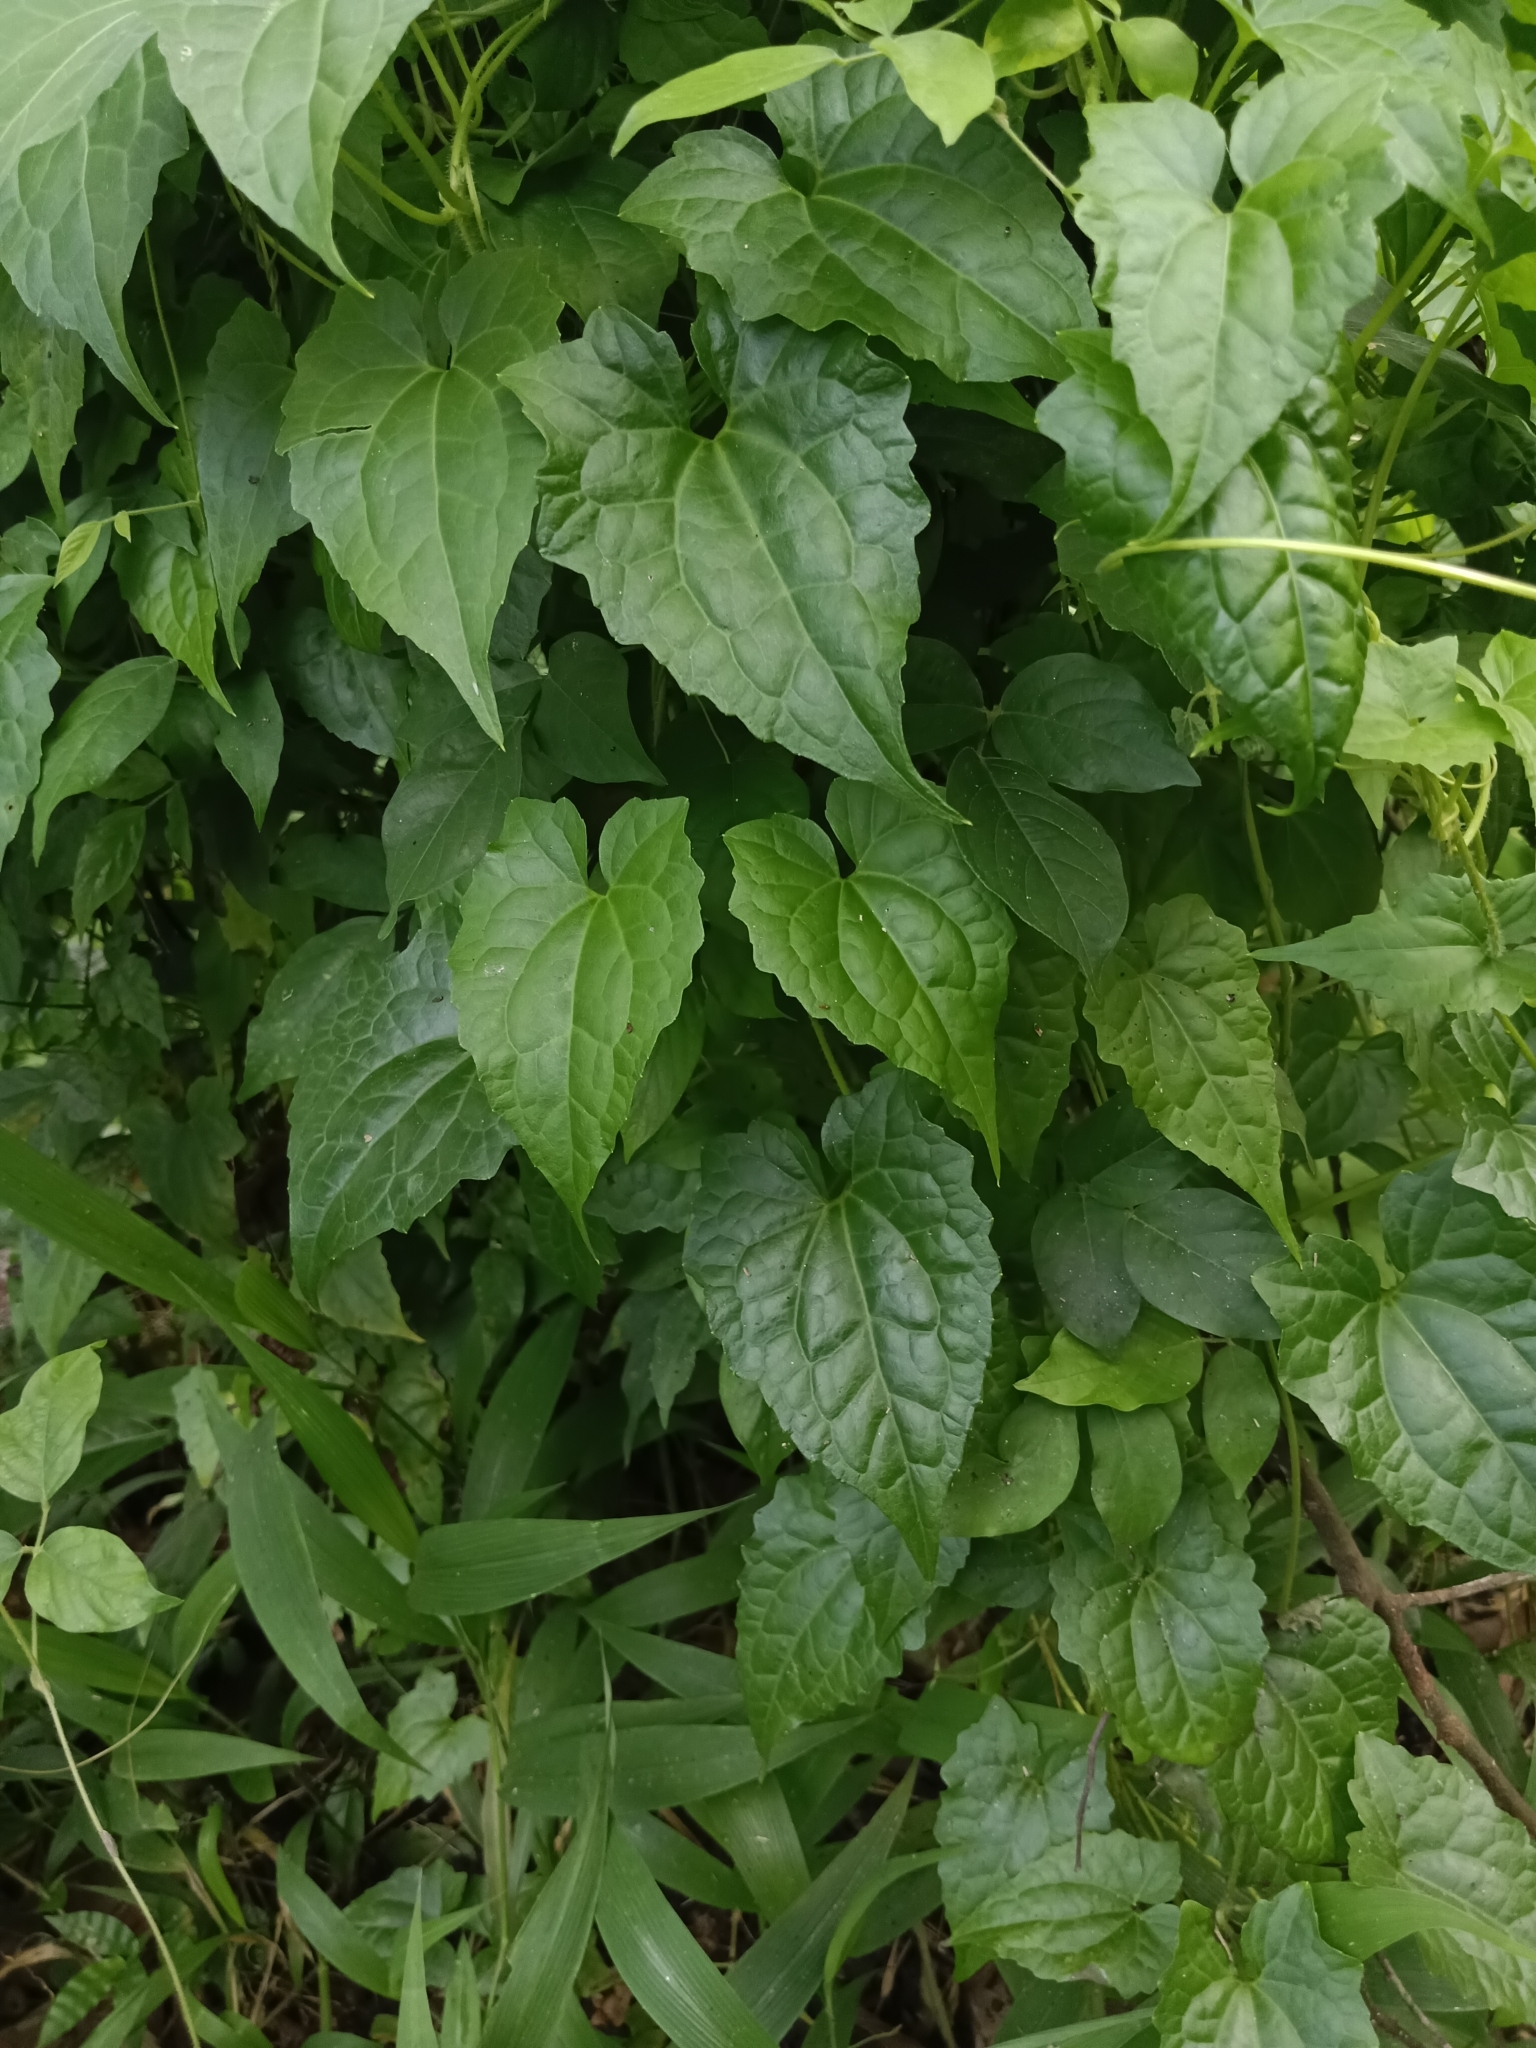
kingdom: Plantae
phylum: Tracheophyta
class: Magnoliopsida
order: Asterales
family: Asteraceae
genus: Mikania
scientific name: Mikania micrantha
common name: Mile-a-minute
